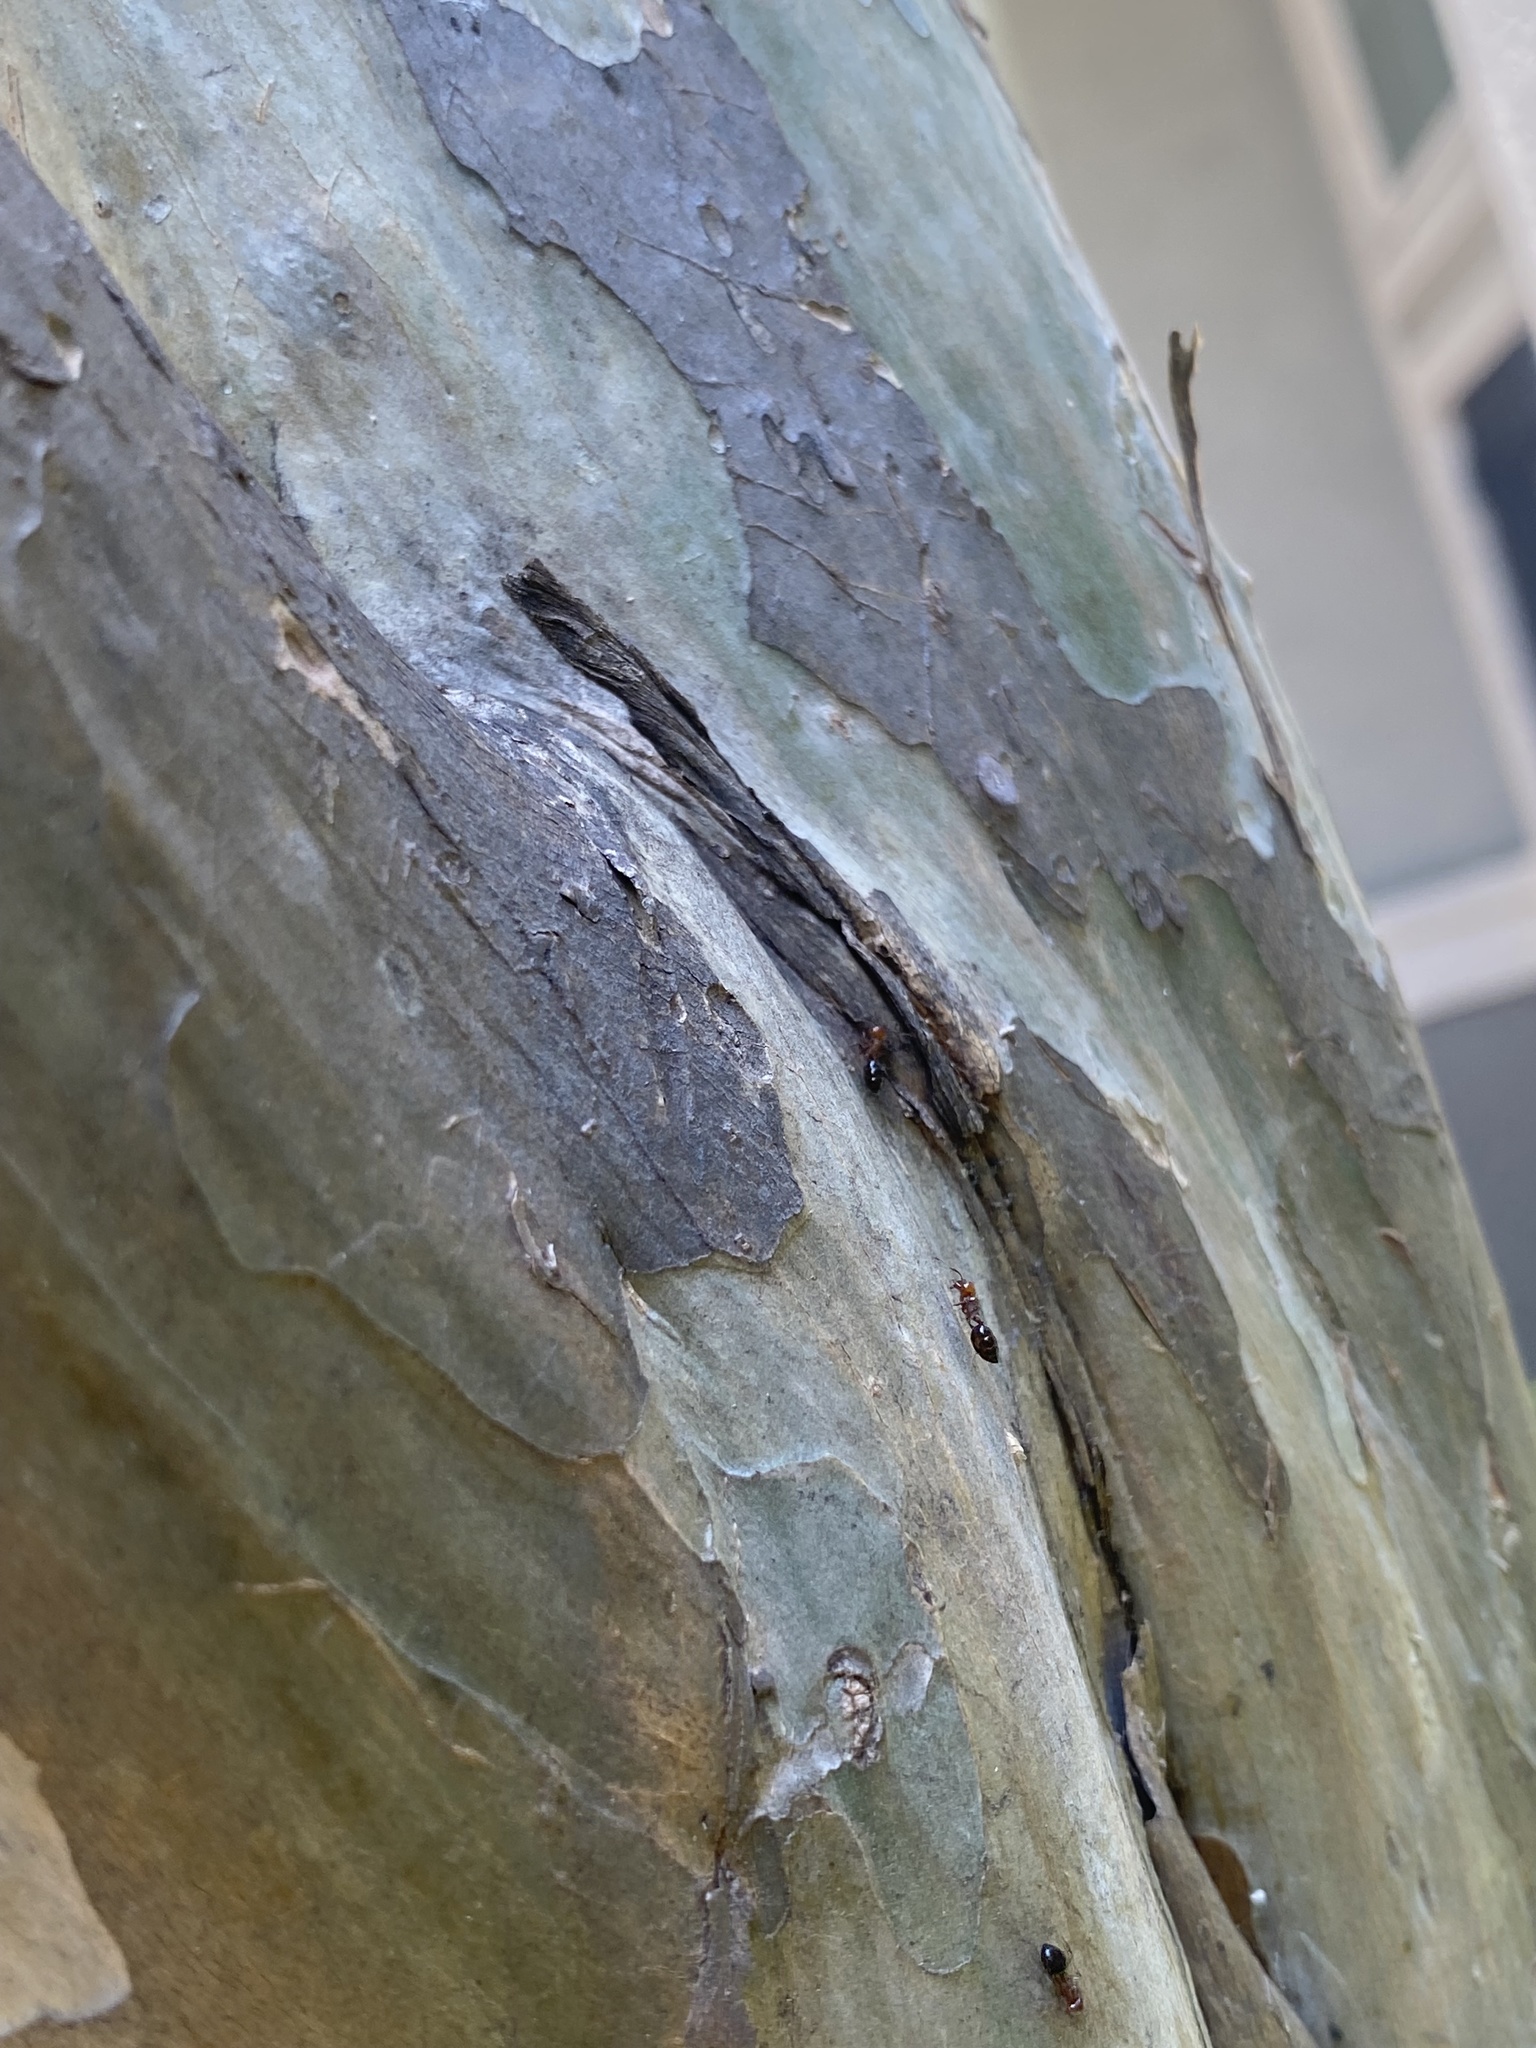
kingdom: Animalia
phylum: Arthropoda
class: Insecta
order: Hymenoptera
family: Formicidae
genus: Crematogaster
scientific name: Crematogaster laeviuscula
